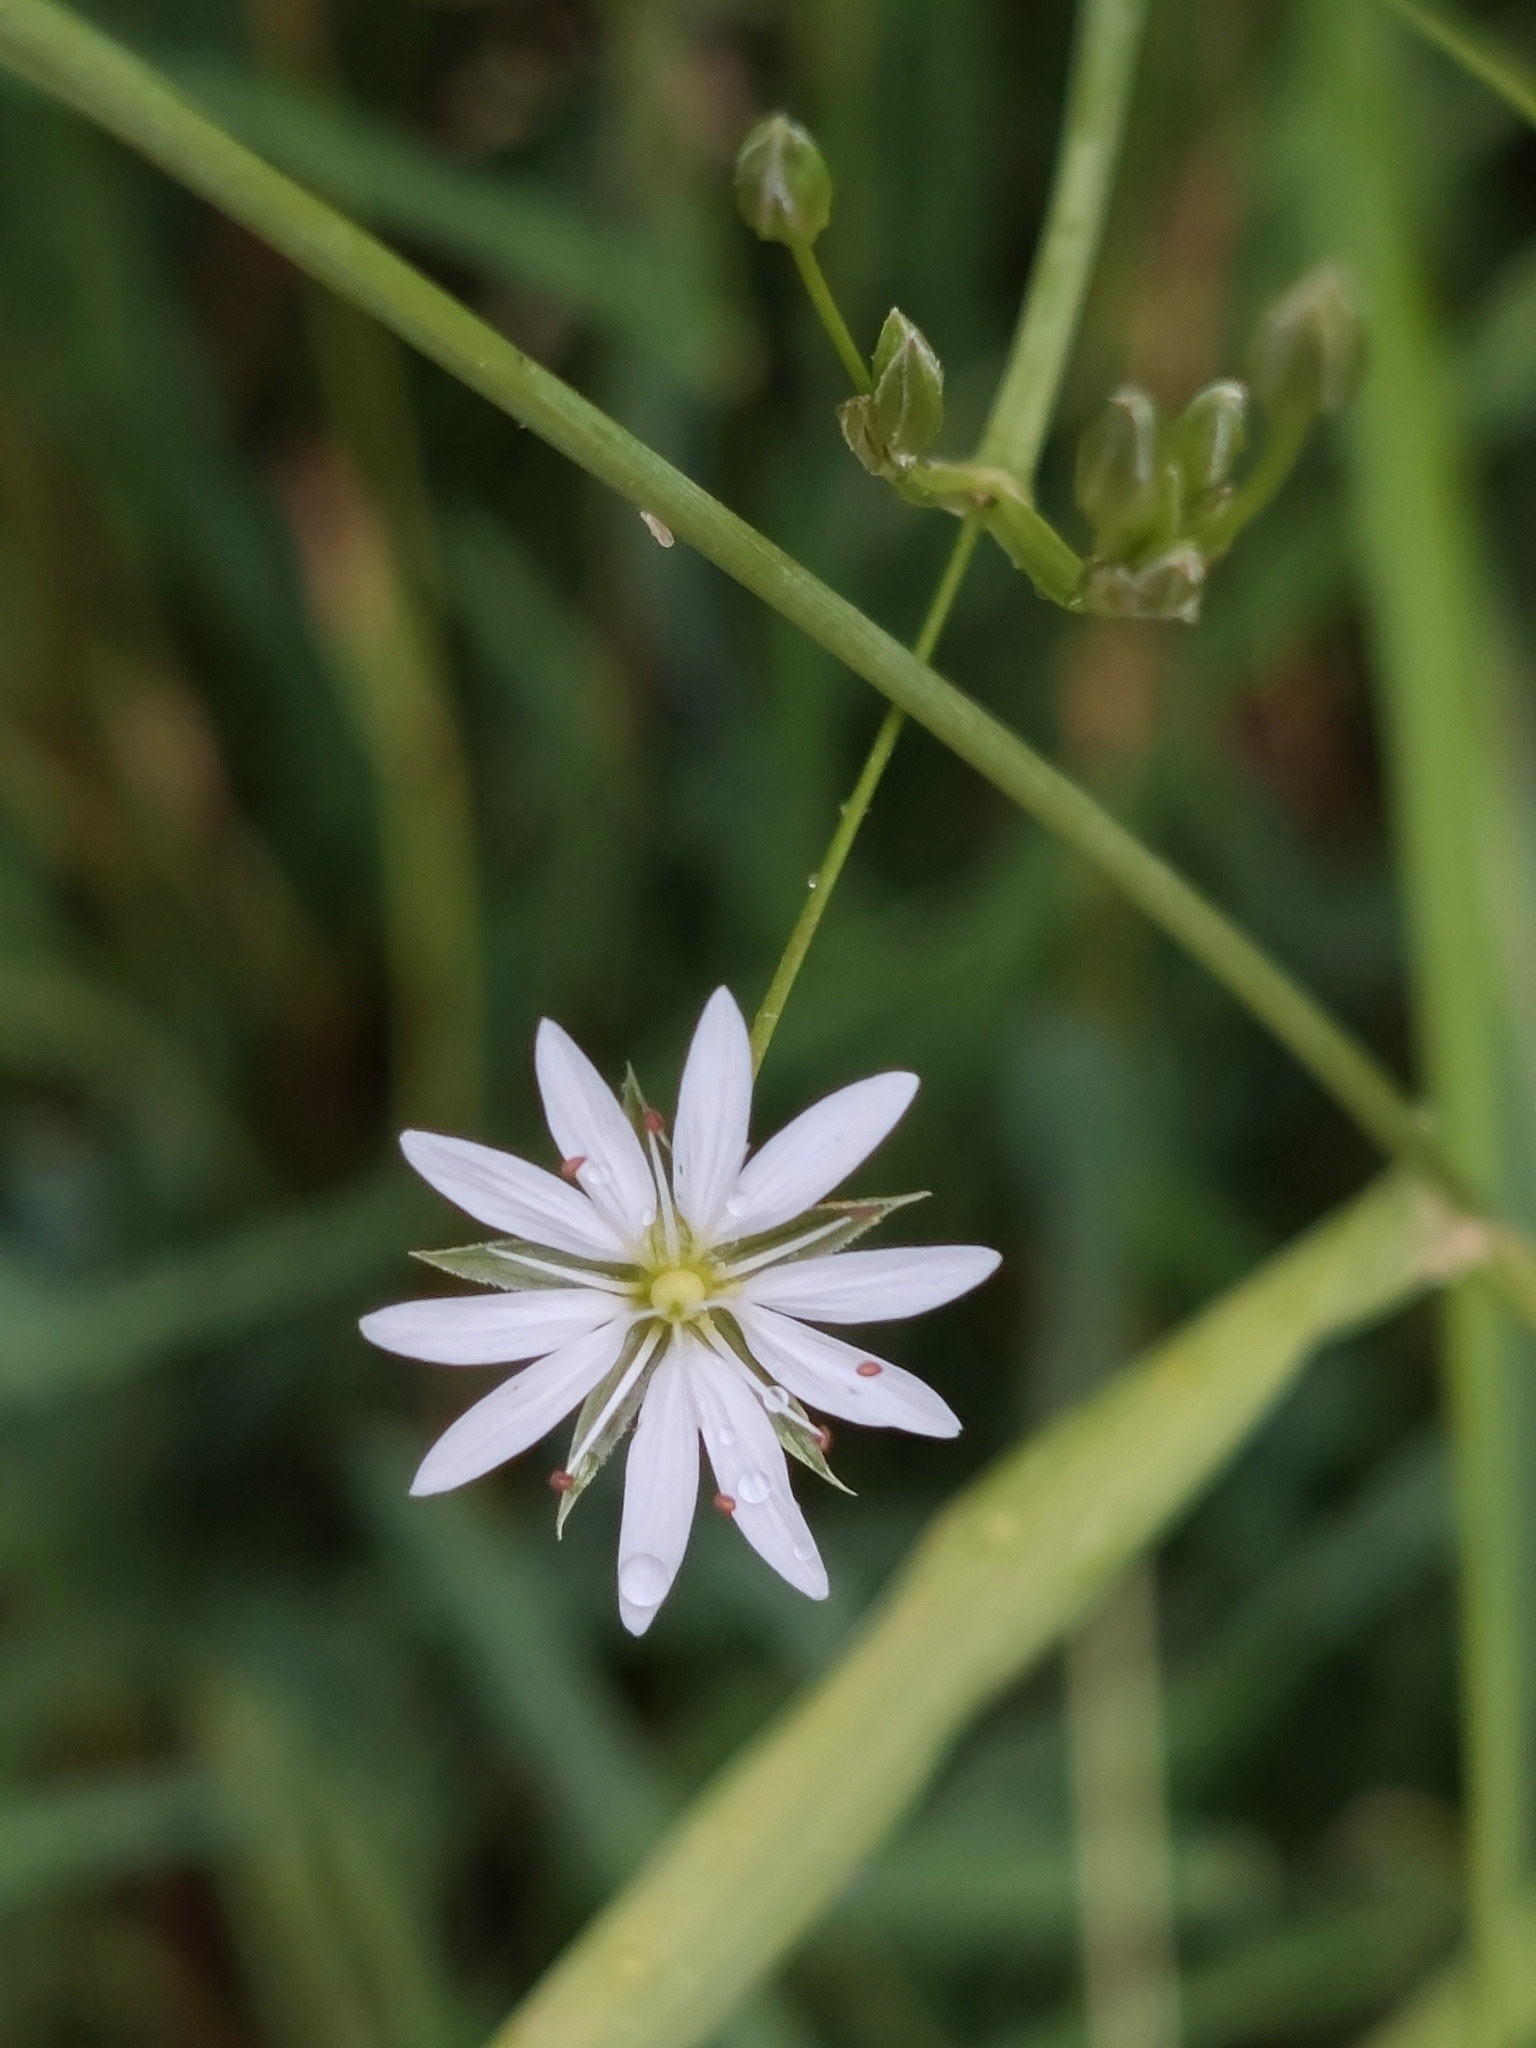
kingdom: Plantae
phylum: Tracheophyta
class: Magnoliopsida
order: Caryophyllales
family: Caryophyllaceae
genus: Stellaria
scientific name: Stellaria graminea
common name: Grass-like starwort
